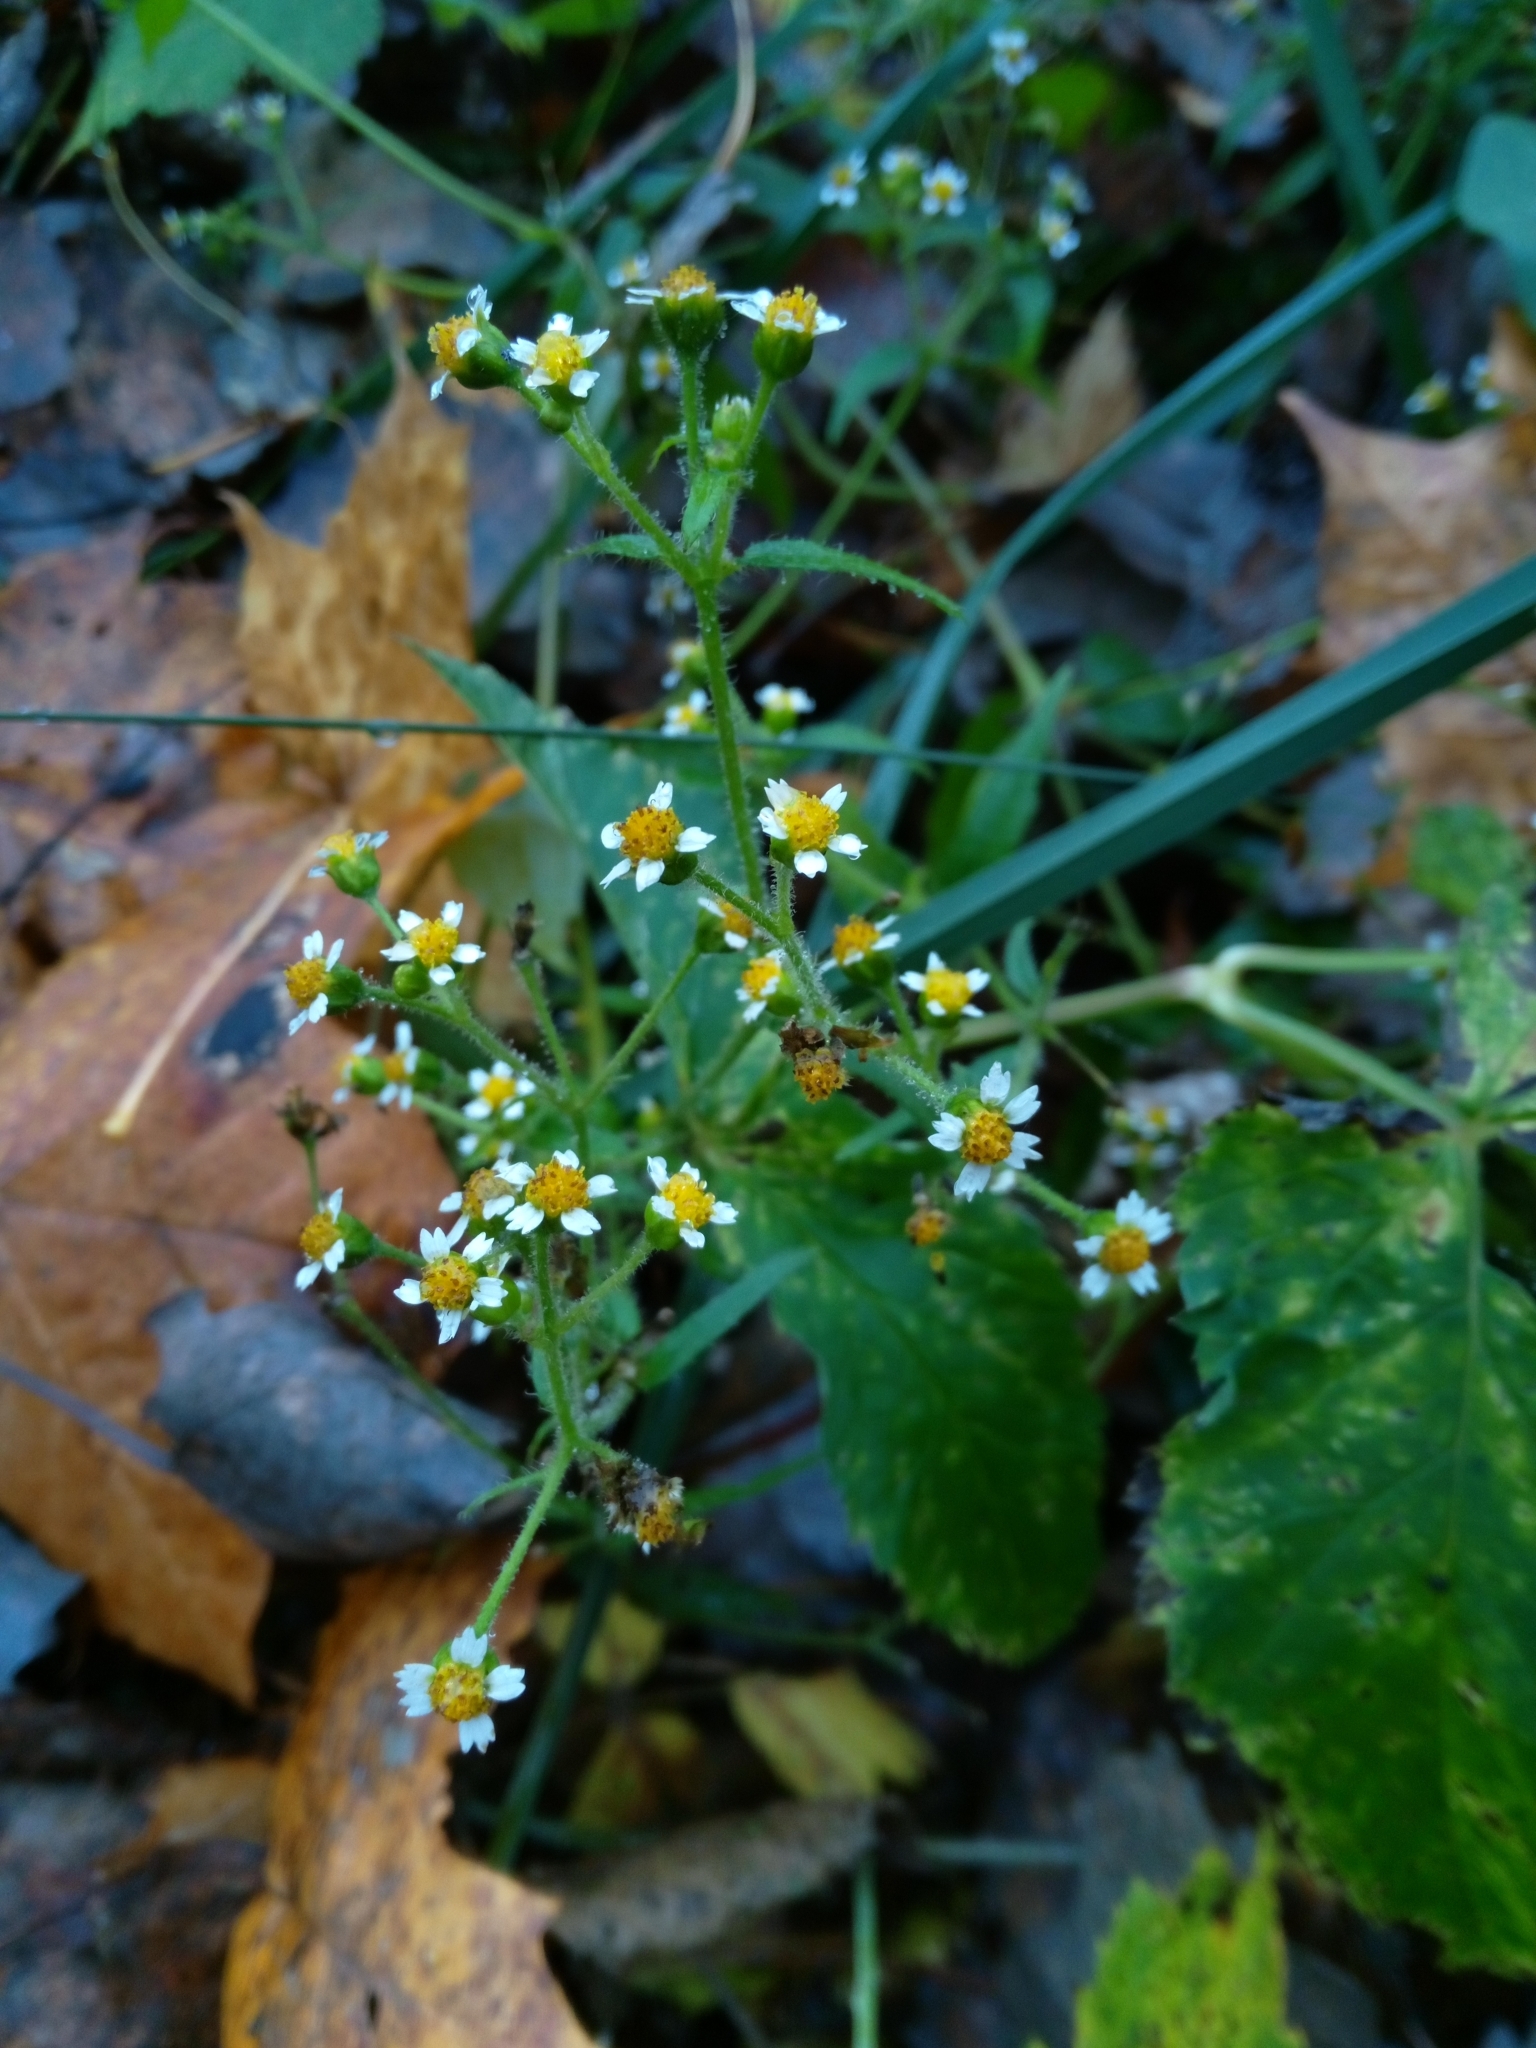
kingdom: Plantae
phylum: Tracheophyta
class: Magnoliopsida
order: Asterales
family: Asteraceae
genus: Galinsoga
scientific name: Galinsoga quadriradiata
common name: Shaggy soldier
